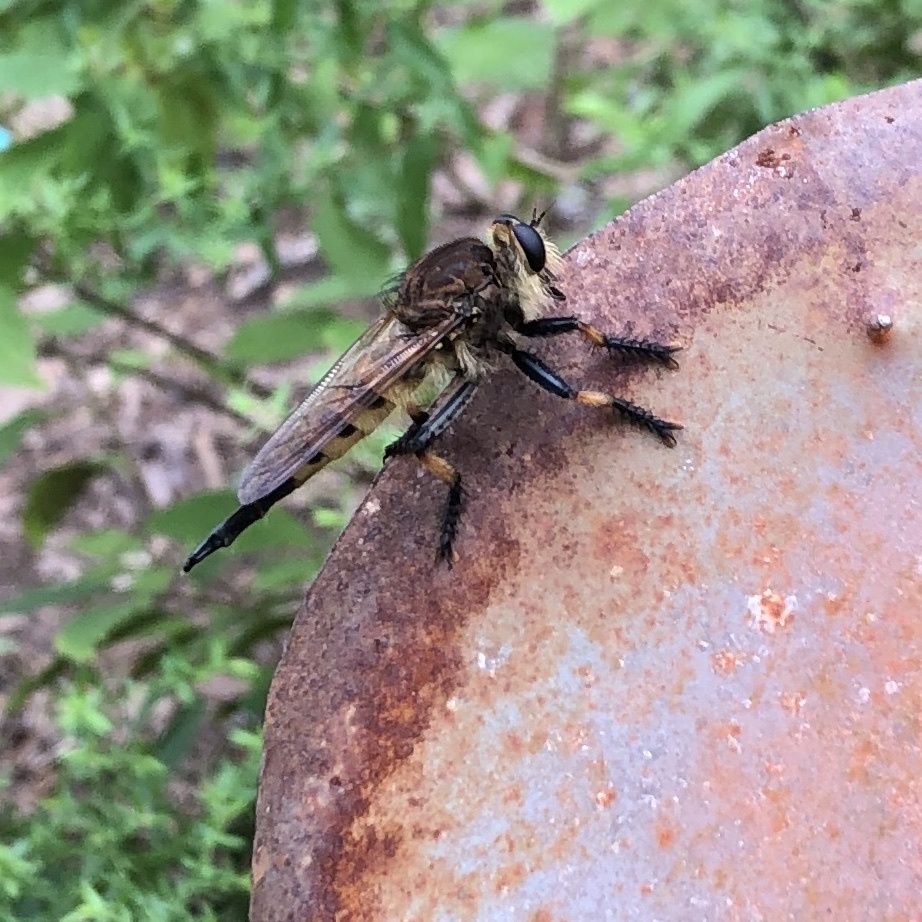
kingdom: Animalia
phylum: Arthropoda
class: Insecta
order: Diptera
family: Asilidae
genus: Promachus
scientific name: Promachus rufipes
